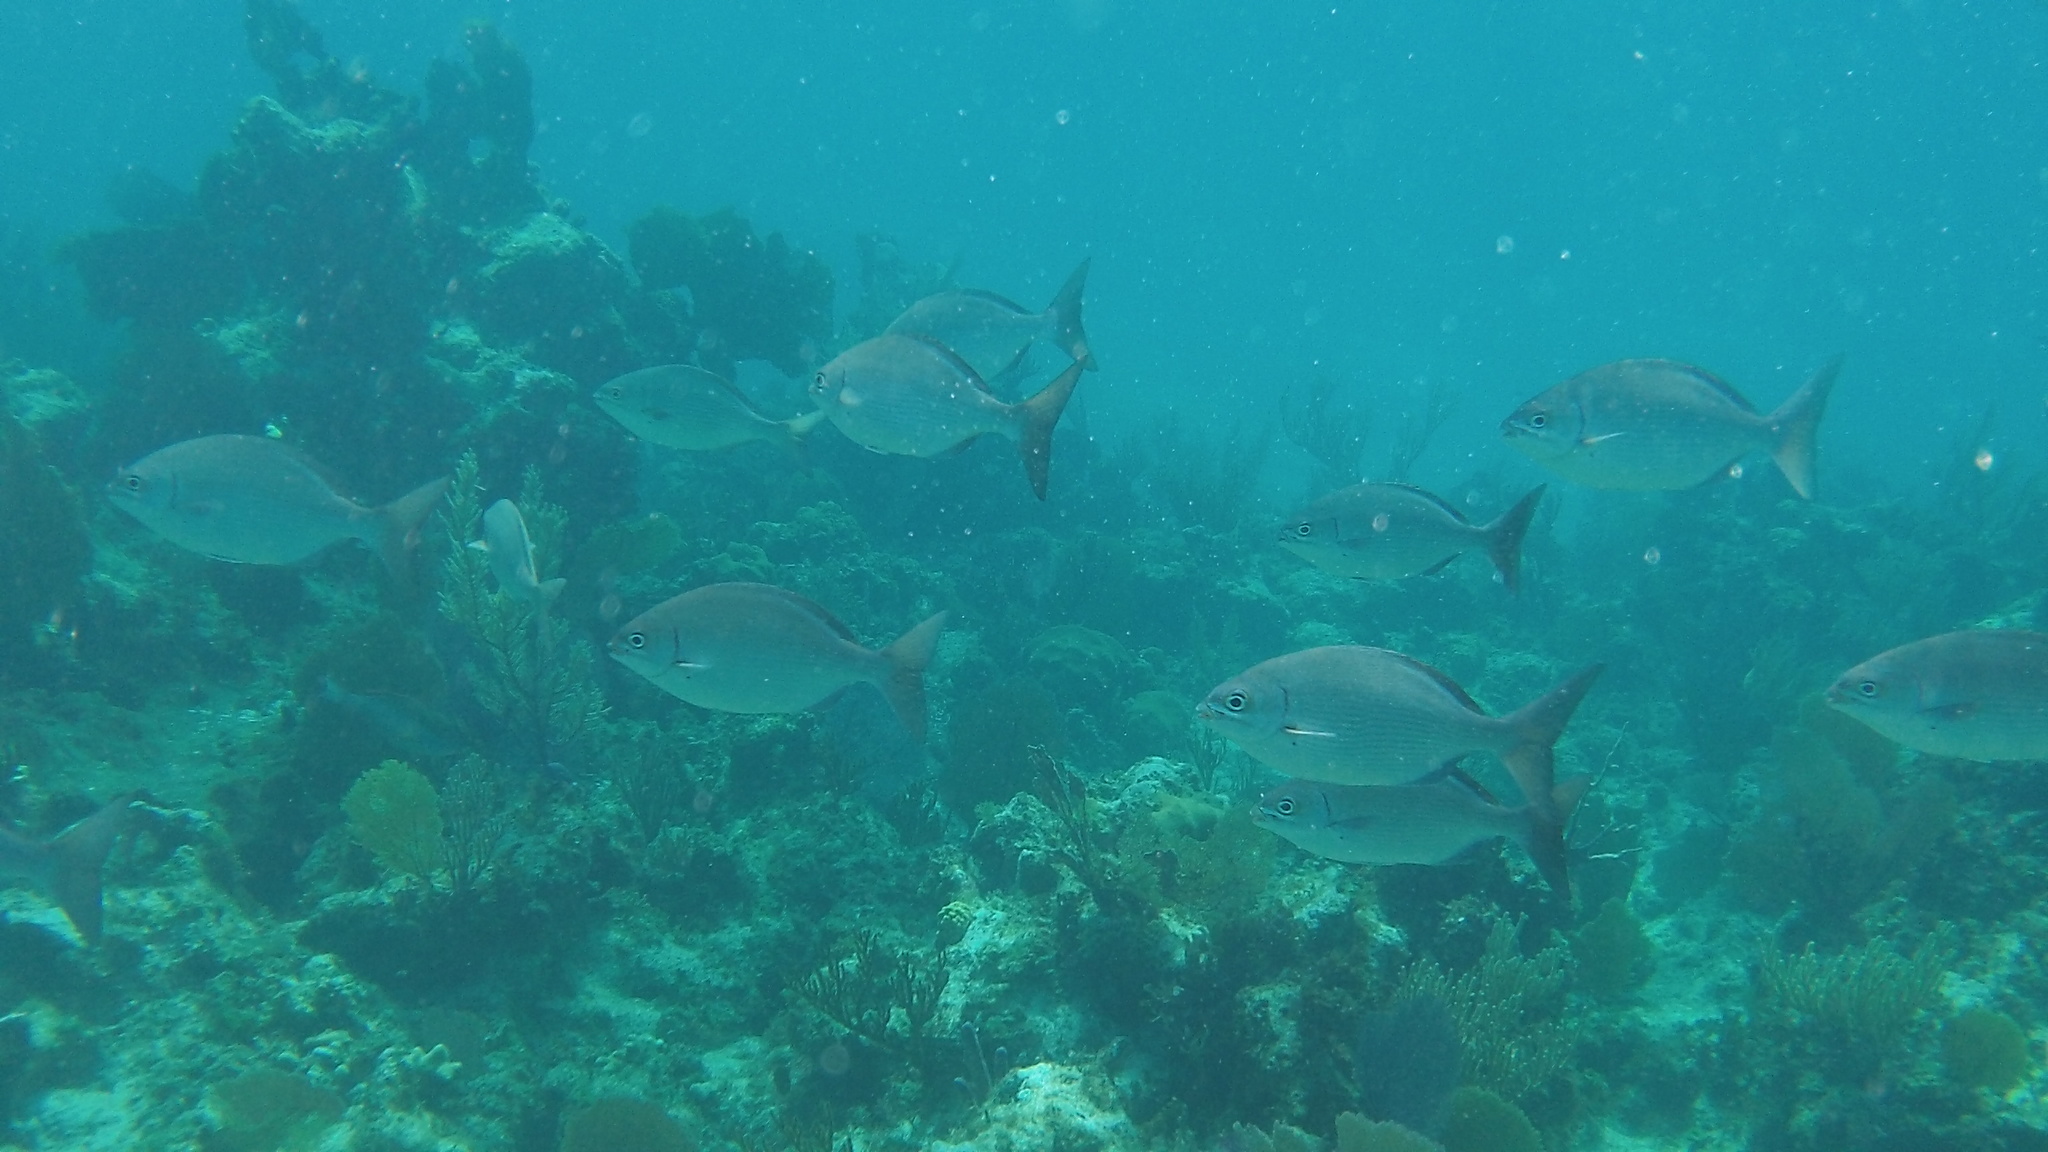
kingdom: Animalia
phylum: Chordata
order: Perciformes
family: Kyphosidae
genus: Kyphosus
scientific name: Kyphosus
